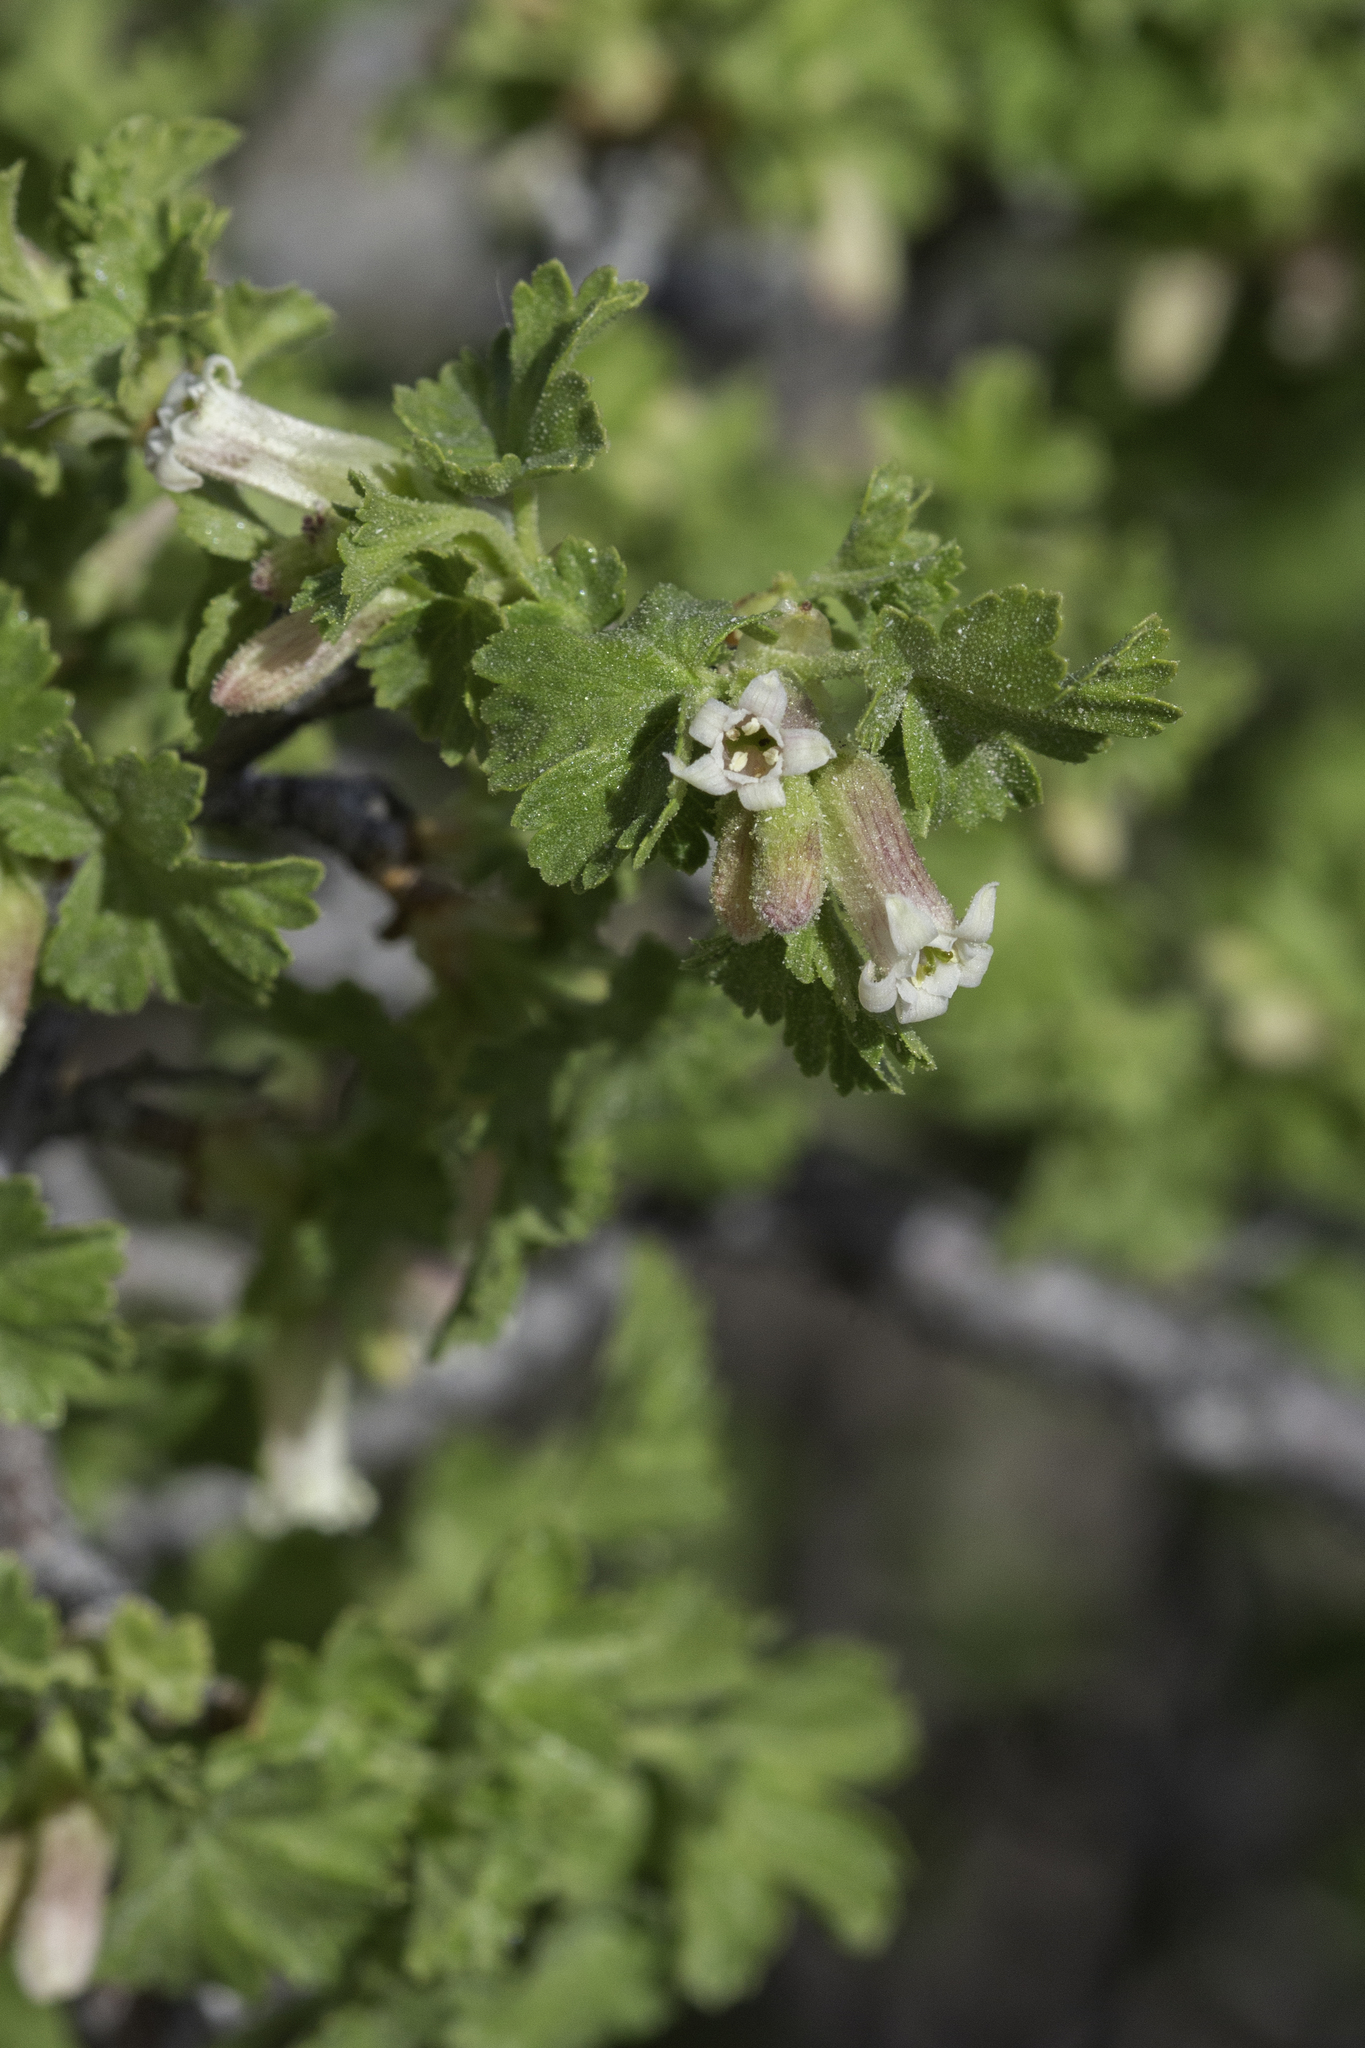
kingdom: Plantae
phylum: Tracheophyta
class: Magnoliopsida
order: Saxifragales
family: Grossulariaceae
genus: Ribes
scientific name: Ribes cereum
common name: Wax currant
